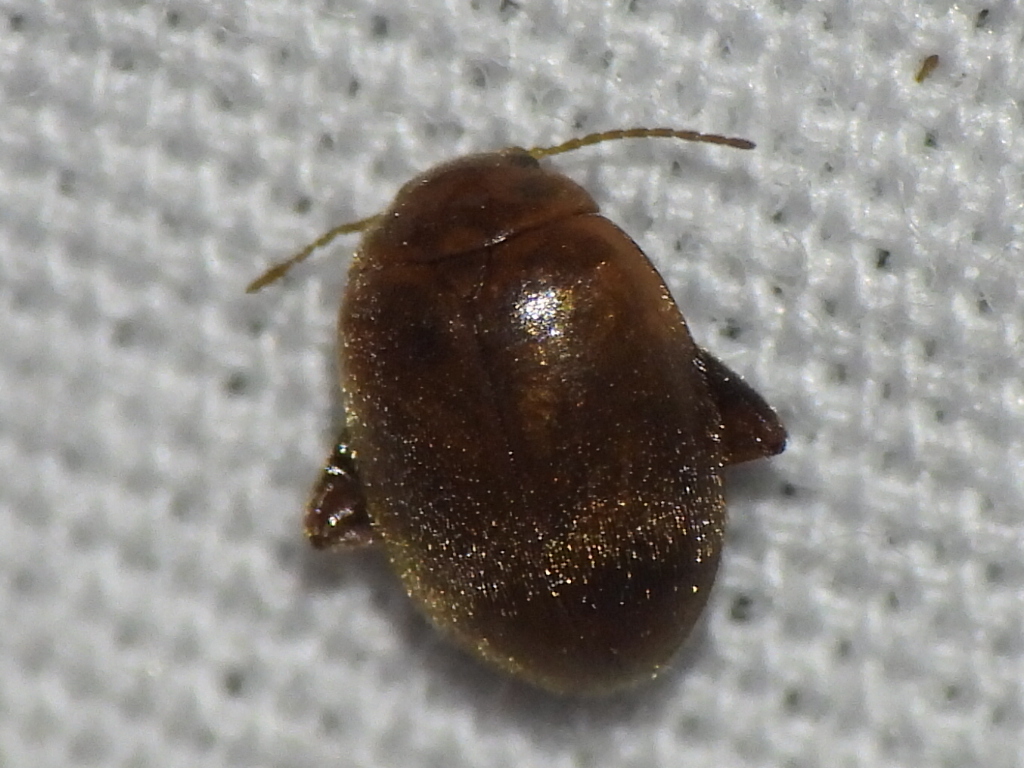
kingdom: Animalia
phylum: Arthropoda
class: Insecta
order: Coleoptera
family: Scirtidae
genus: Scirtes
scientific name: Scirtes tibialis
